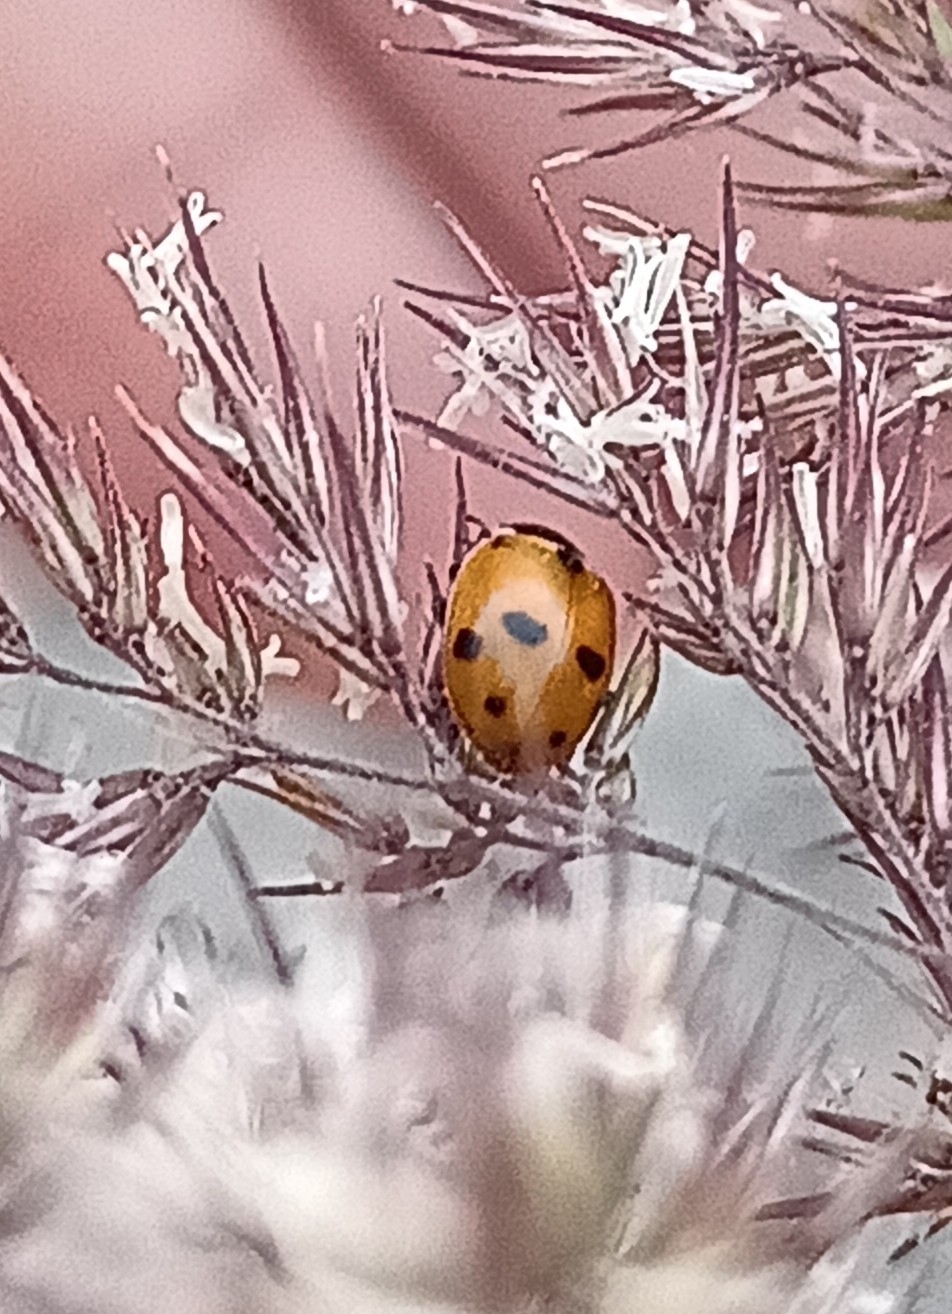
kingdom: Animalia
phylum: Arthropoda
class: Insecta
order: Coleoptera
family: Coccinellidae
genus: Hippodamia
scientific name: Hippodamia variegata
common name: Ladybird beetle
